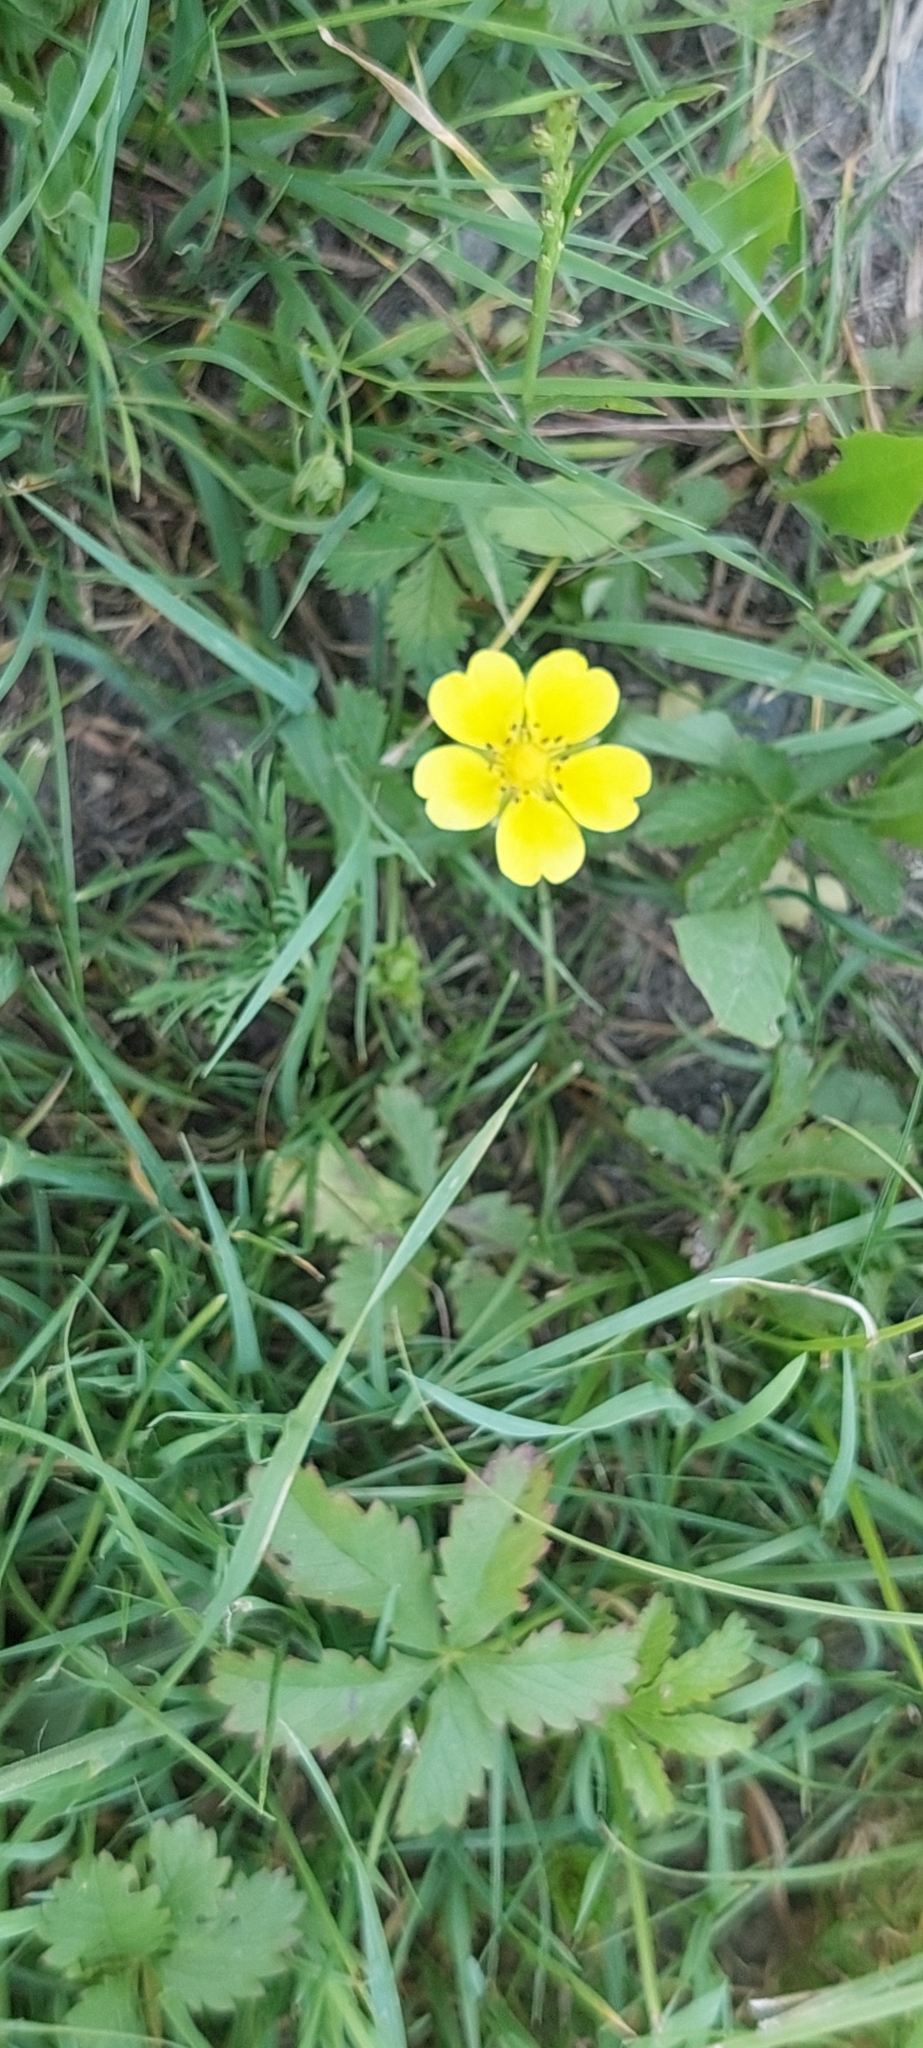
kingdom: Plantae
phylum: Tracheophyta
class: Magnoliopsida
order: Rosales
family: Rosaceae
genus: Potentilla
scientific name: Potentilla reptans
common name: Creeping cinquefoil
